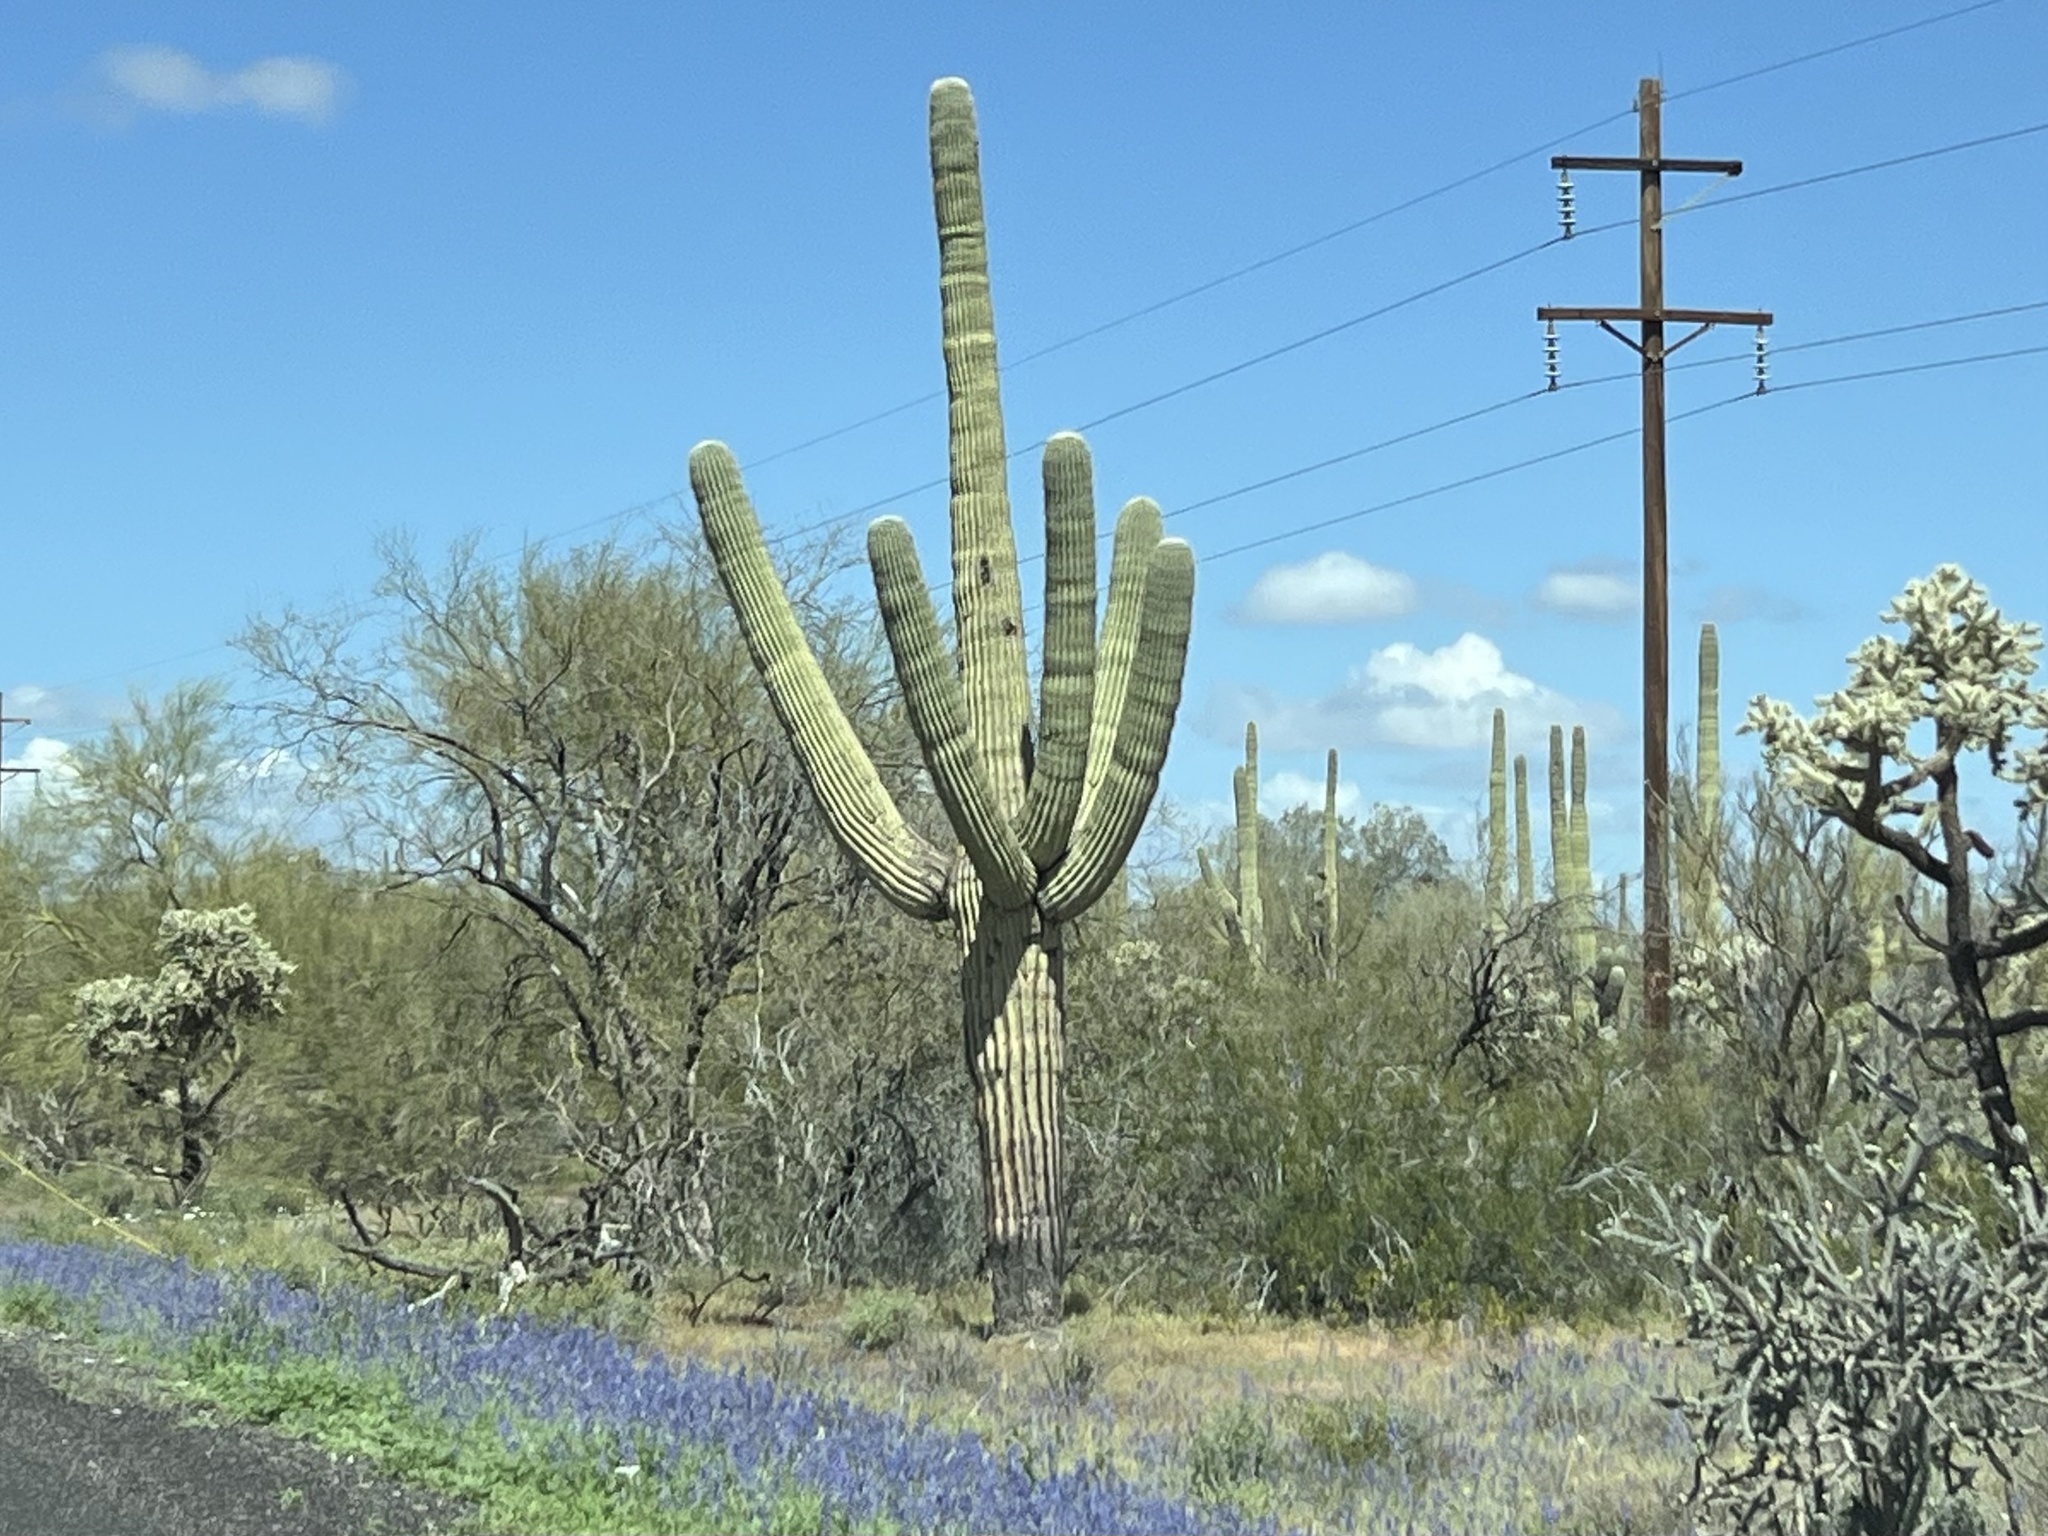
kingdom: Plantae
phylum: Tracheophyta
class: Magnoliopsida
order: Caryophyllales
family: Cactaceae
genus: Carnegiea
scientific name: Carnegiea gigantea
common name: Saguaro
